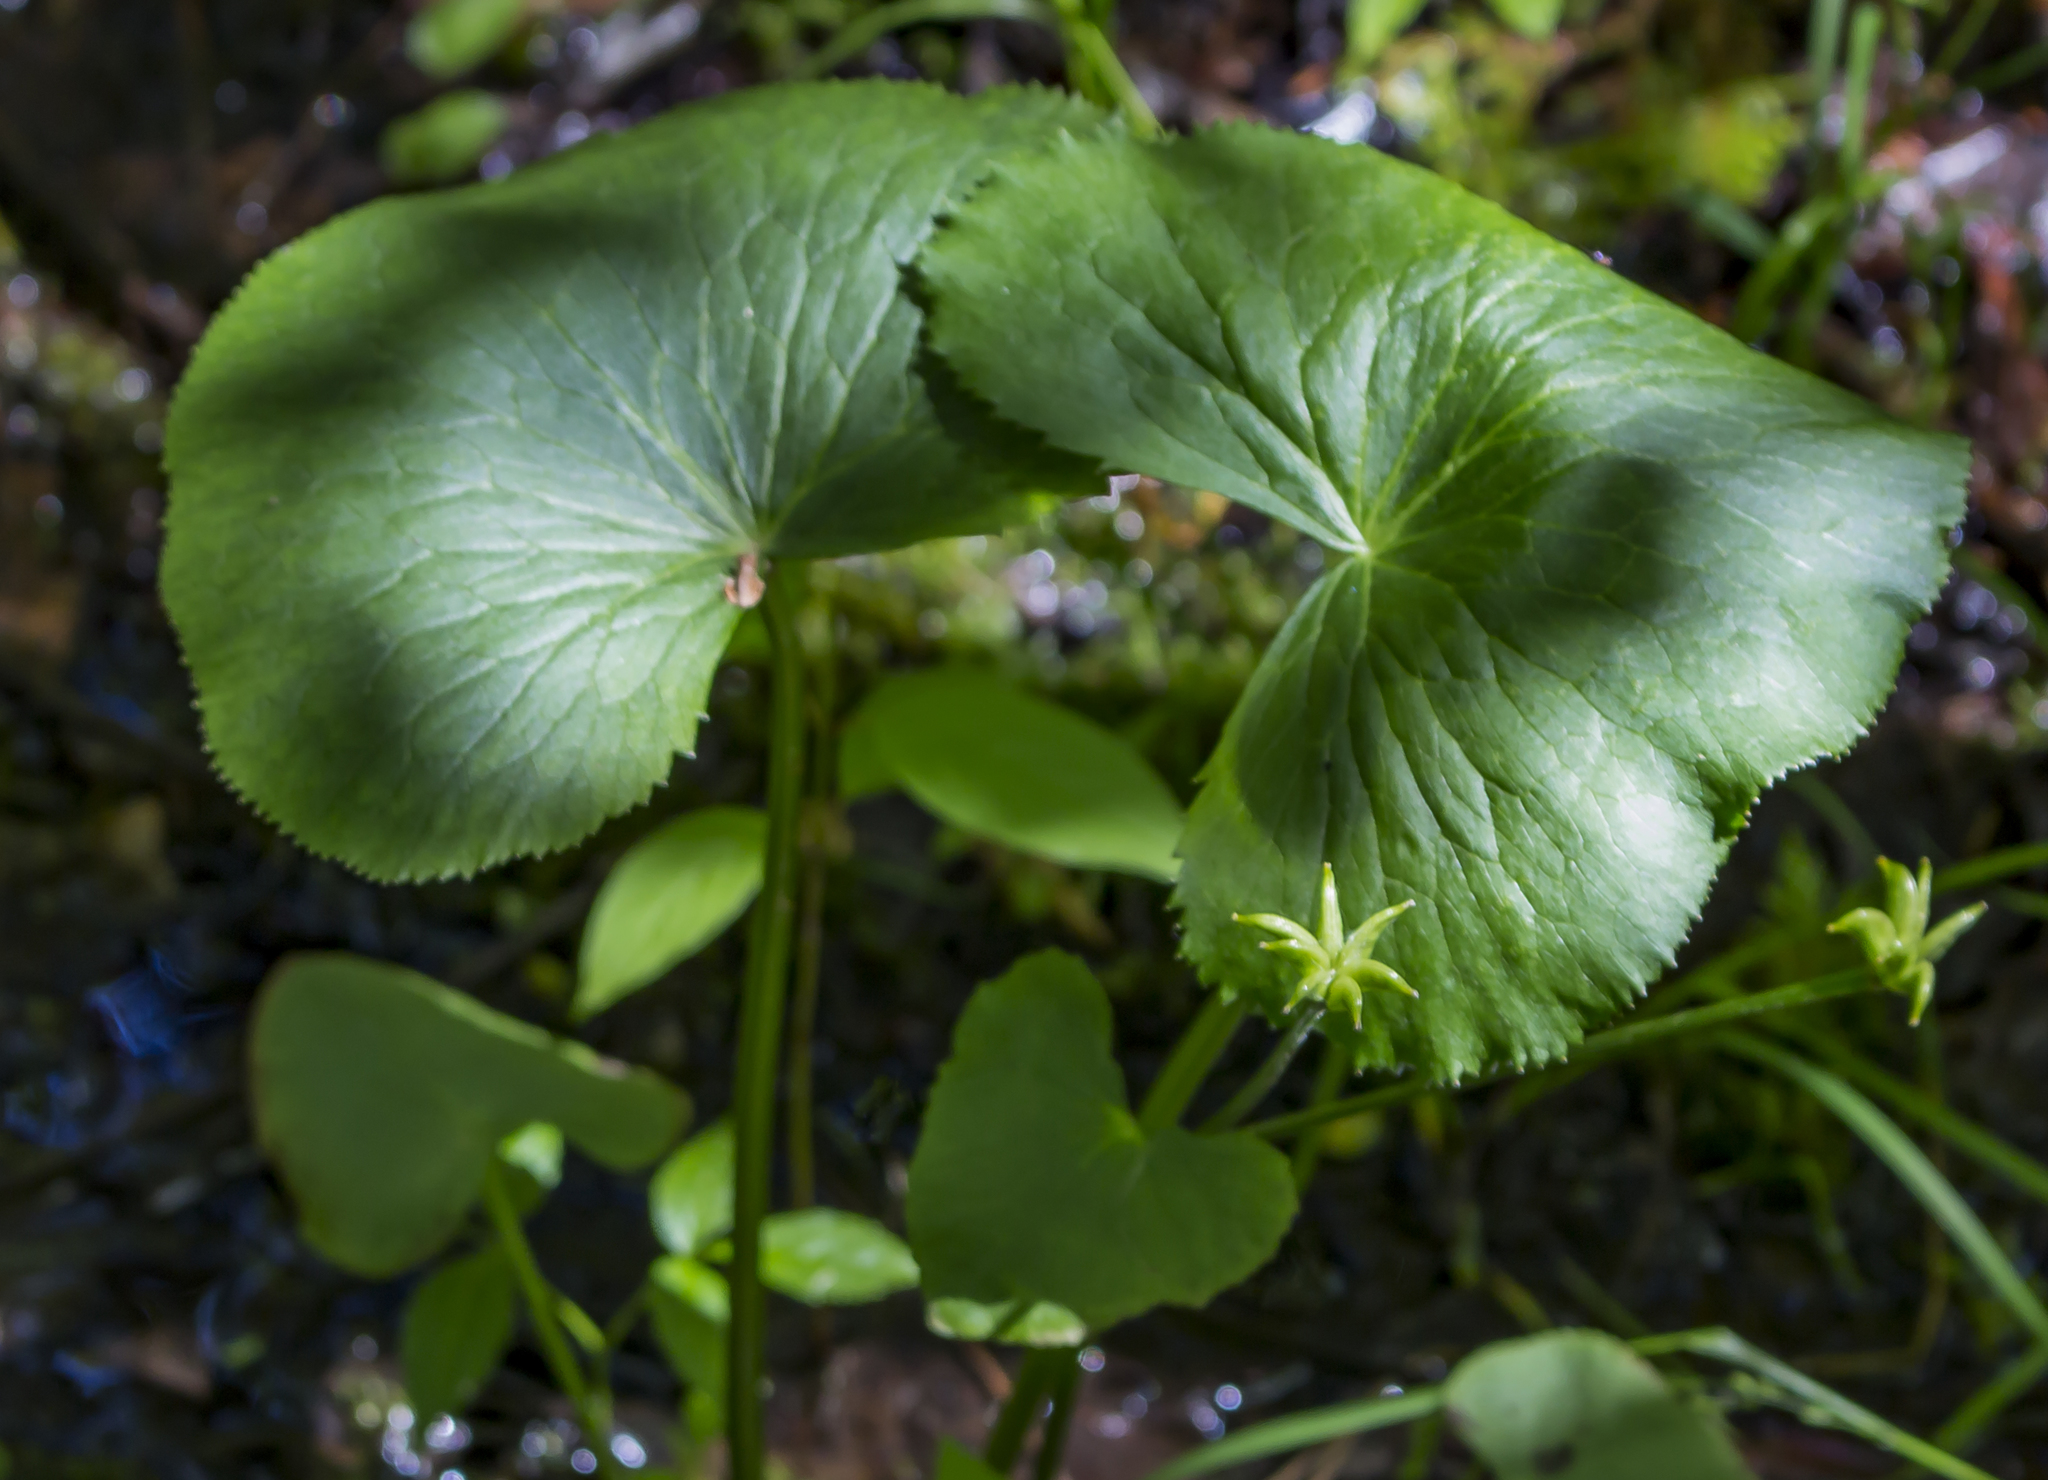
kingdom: Plantae
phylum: Tracheophyta
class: Magnoliopsida
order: Ranunculales
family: Ranunculaceae
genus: Caltha
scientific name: Caltha palustris
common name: Marsh marigold
